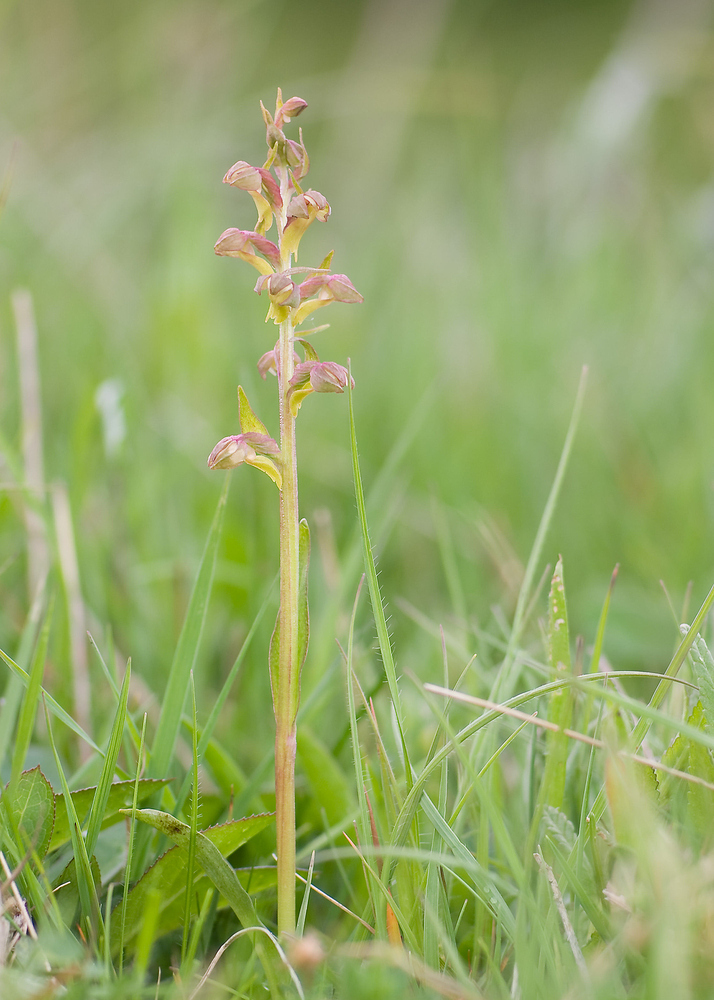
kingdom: Plantae
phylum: Tracheophyta
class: Liliopsida
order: Asparagales
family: Orchidaceae
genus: Dactylorhiza
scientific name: Dactylorhiza viridis
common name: Longbract frog orchid
